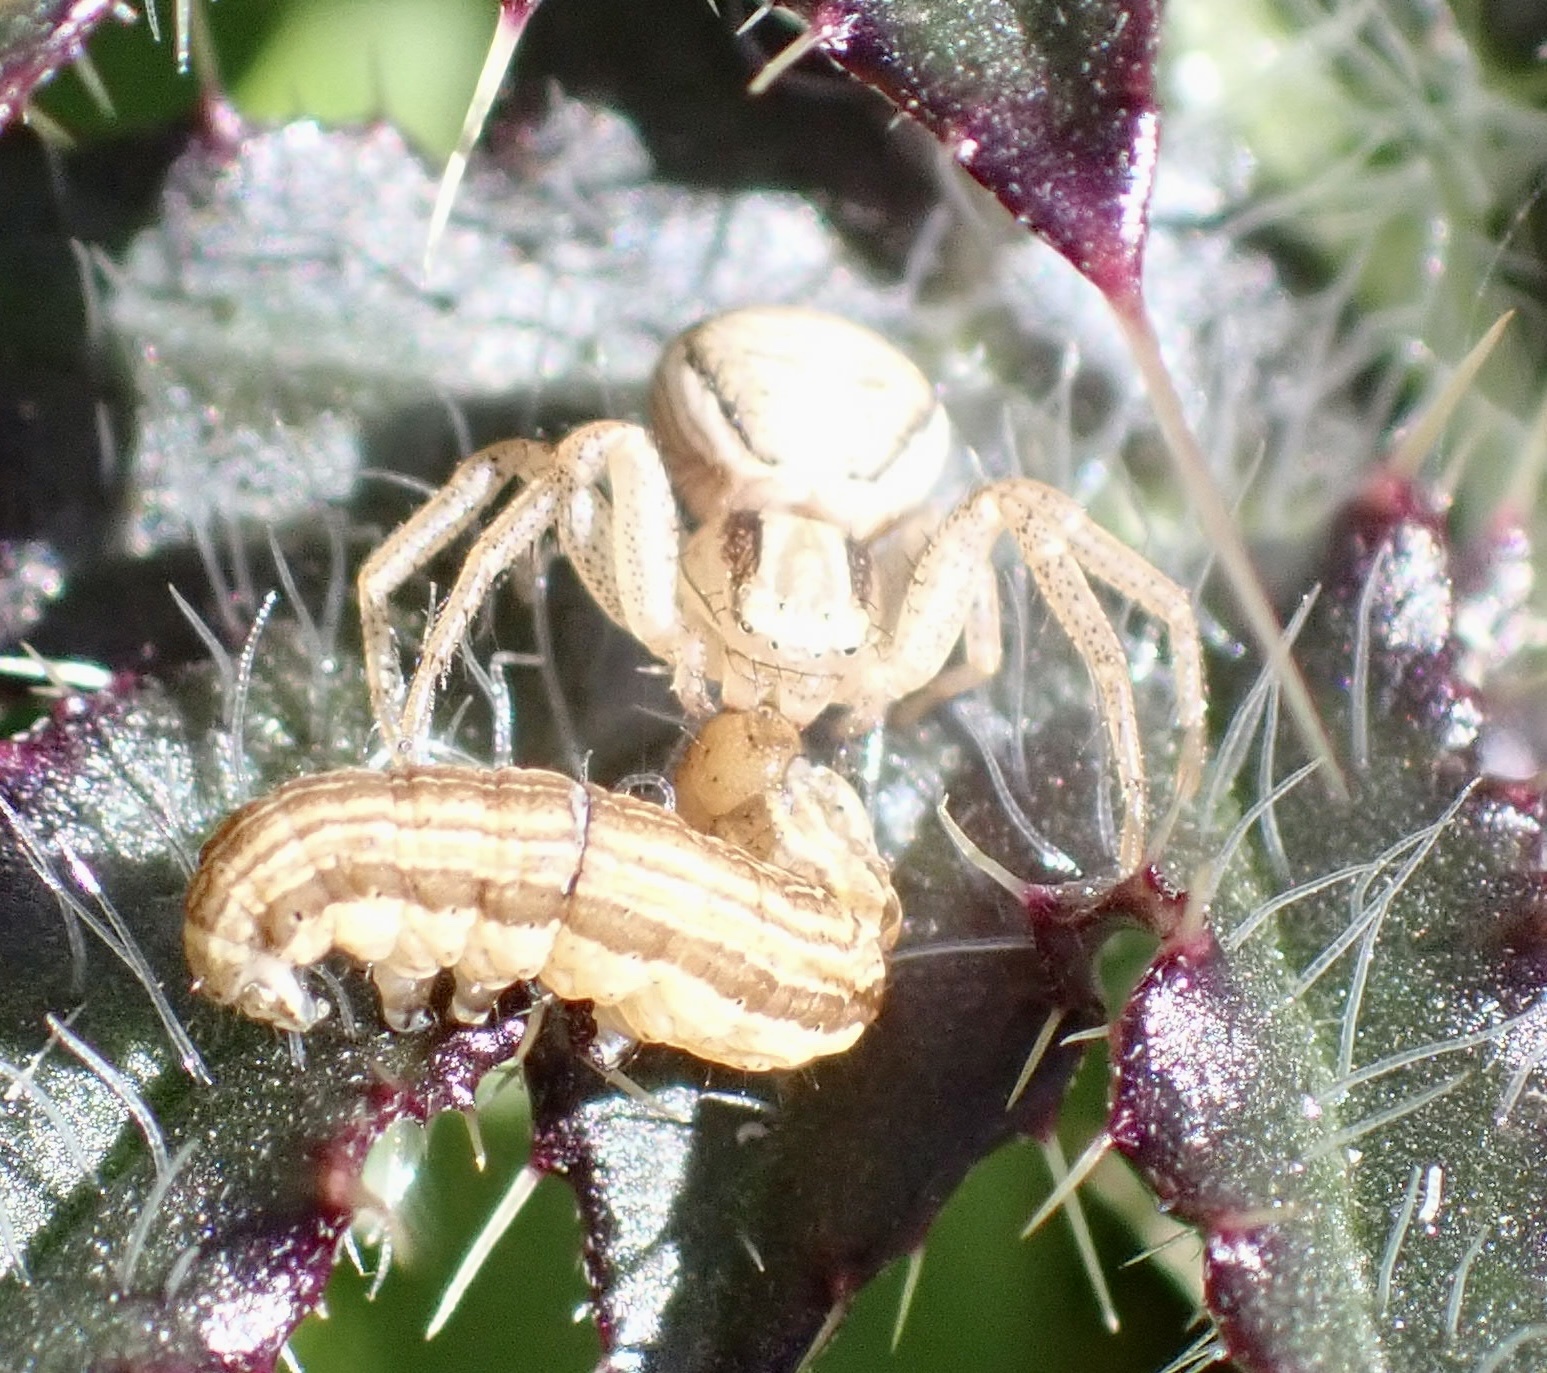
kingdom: Animalia
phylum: Arthropoda
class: Arachnida
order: Araneae
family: Thomisidae
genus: Xysticus
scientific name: Xysticus ulmi
